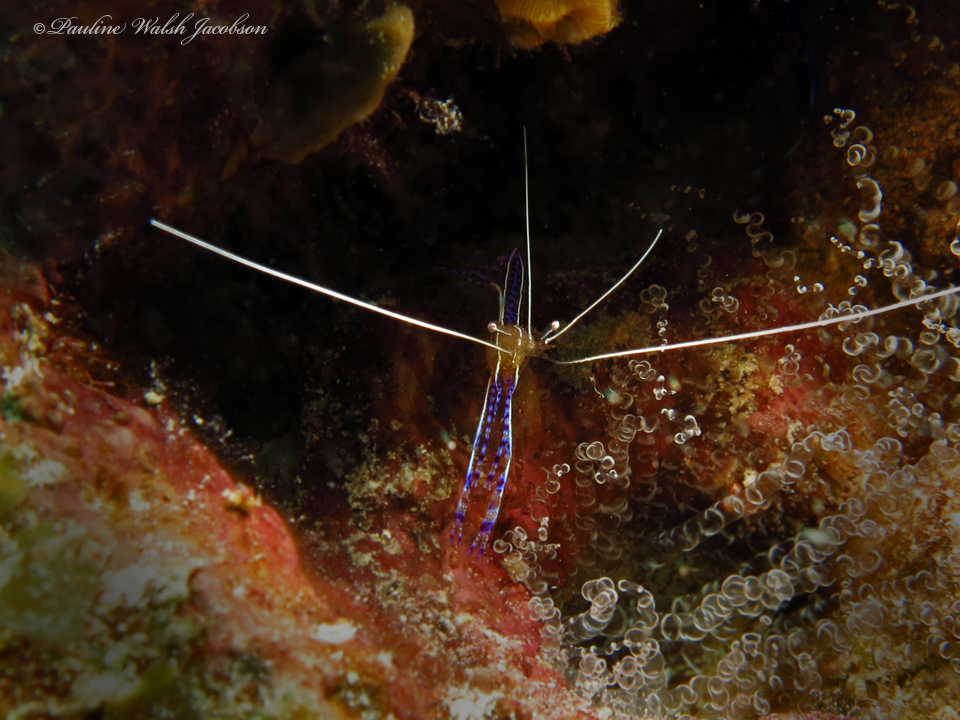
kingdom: Animalia
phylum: Arthropoda
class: Malacostraca
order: Decapoda
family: Palaemonidae
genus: Ancylomenes
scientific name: Ancylomenes pedersoni
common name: Pederson's cleaning shrimp
